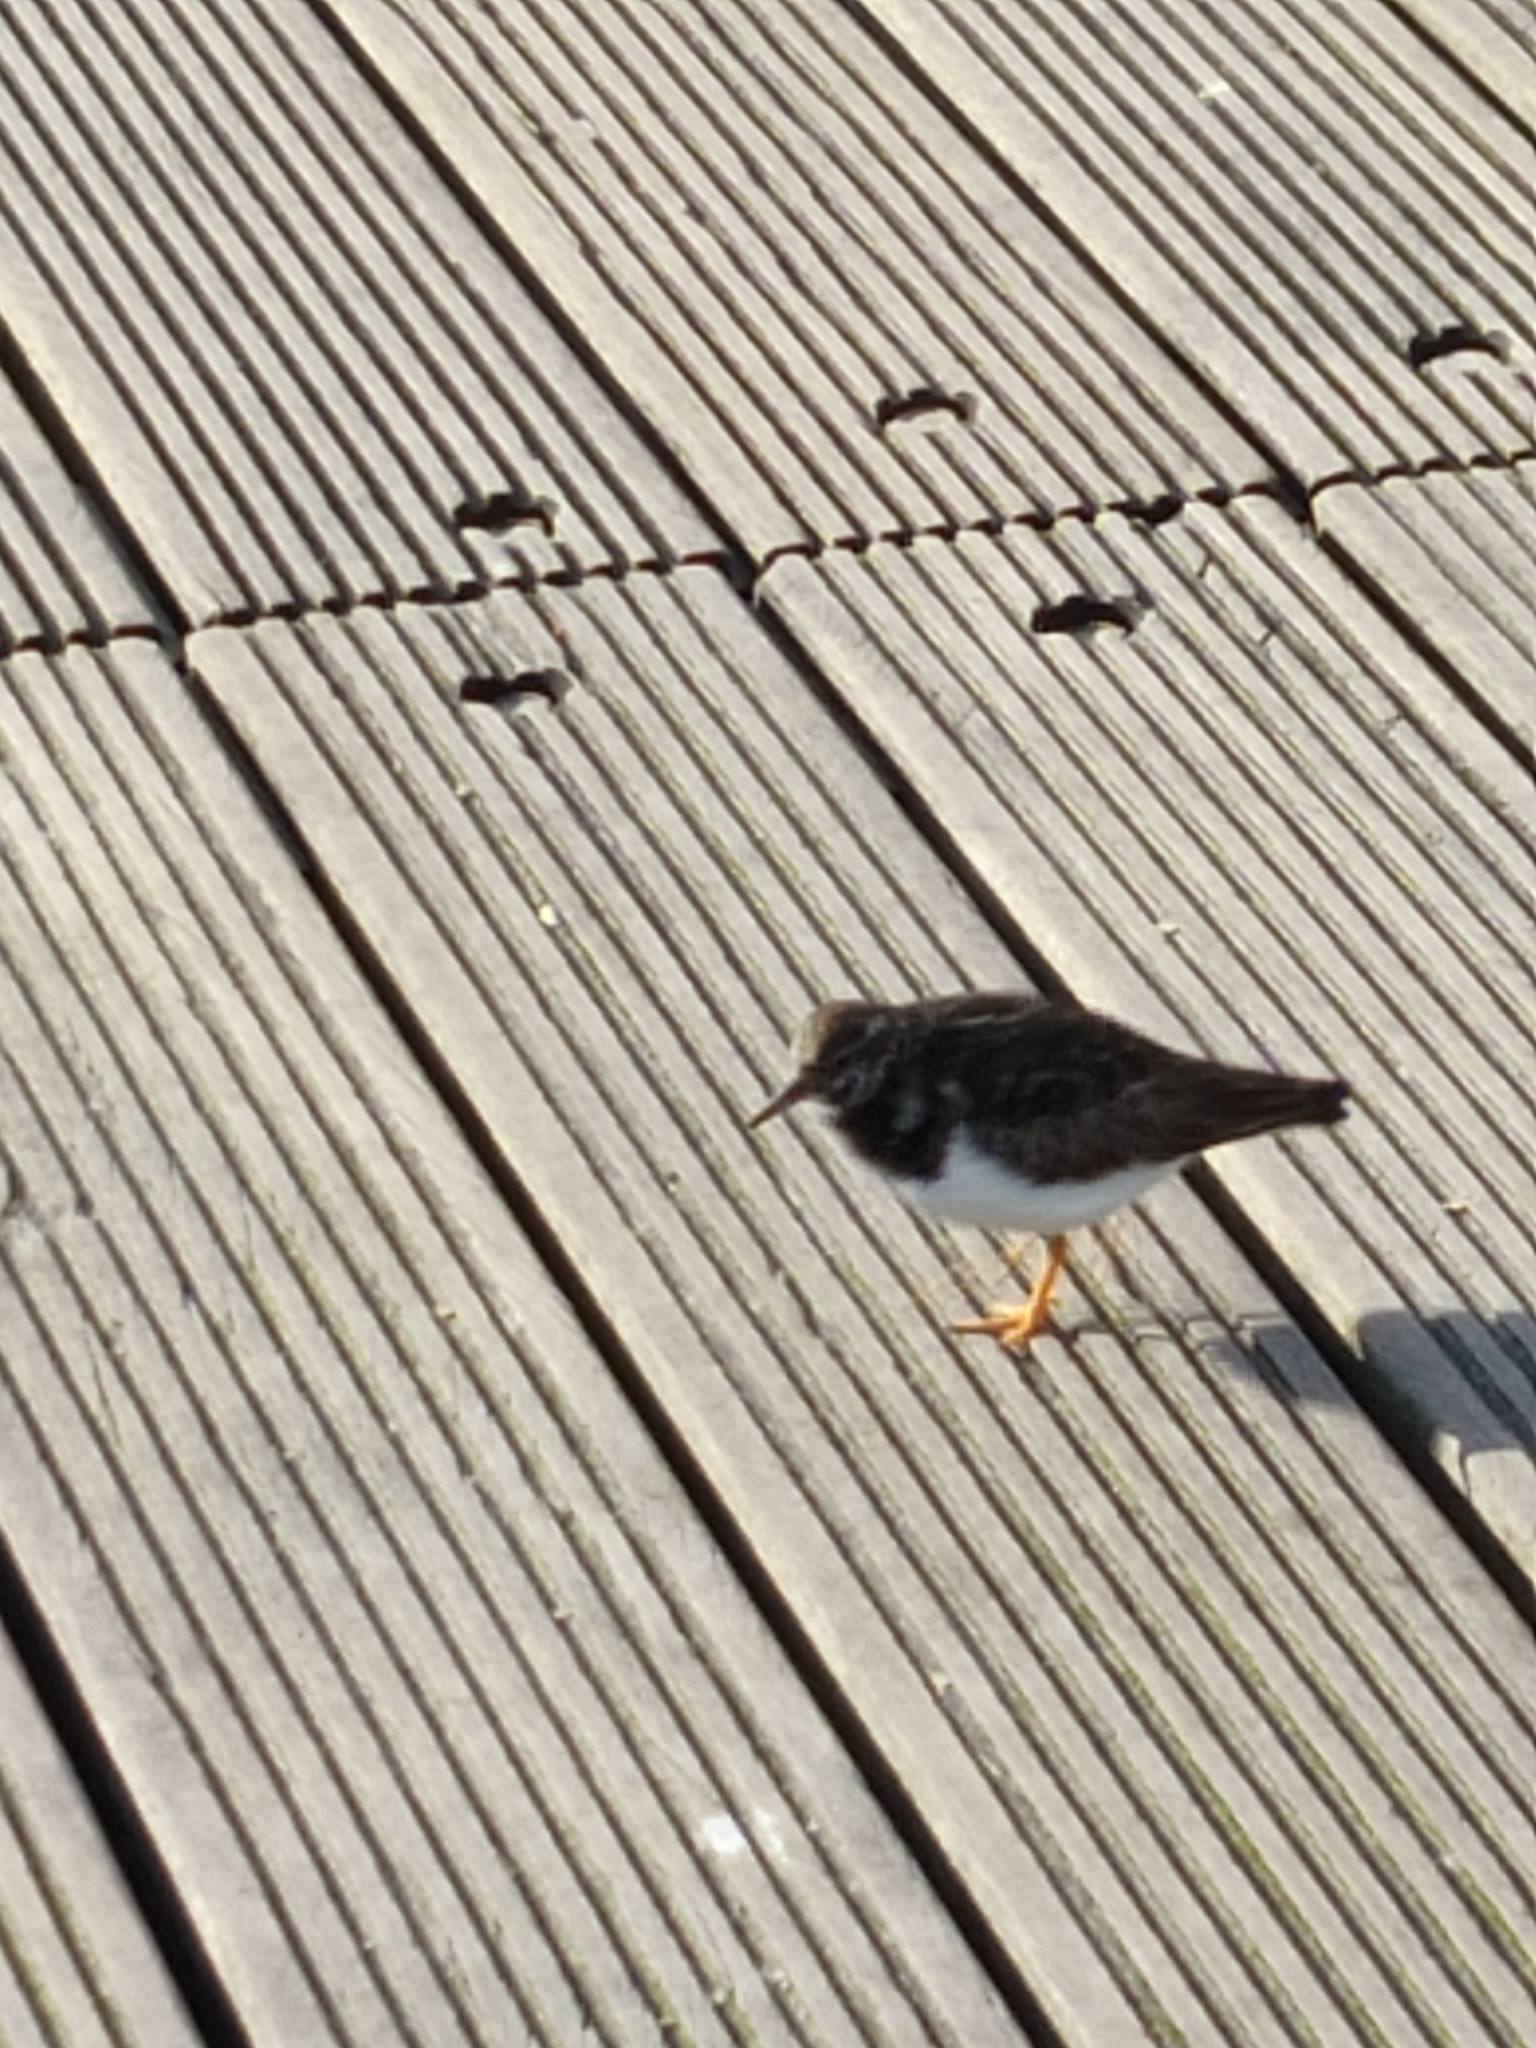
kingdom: Animalia
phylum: Chordata
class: Aves
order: Charadriiformes
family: Scolopacidae
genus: Arenaria
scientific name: Arenaria interpres
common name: Ruddy turnstone
